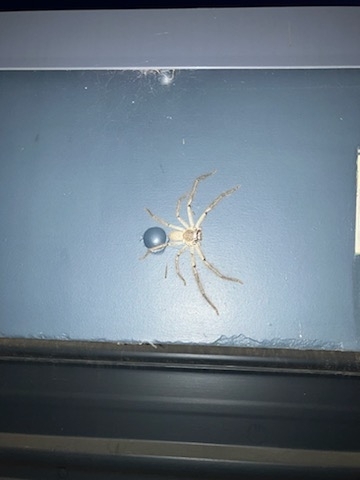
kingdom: Animalia
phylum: Arthropoda
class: Arachnida
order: Araneae
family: Sparassidae
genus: Isopeda
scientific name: Isopeda canberrana
